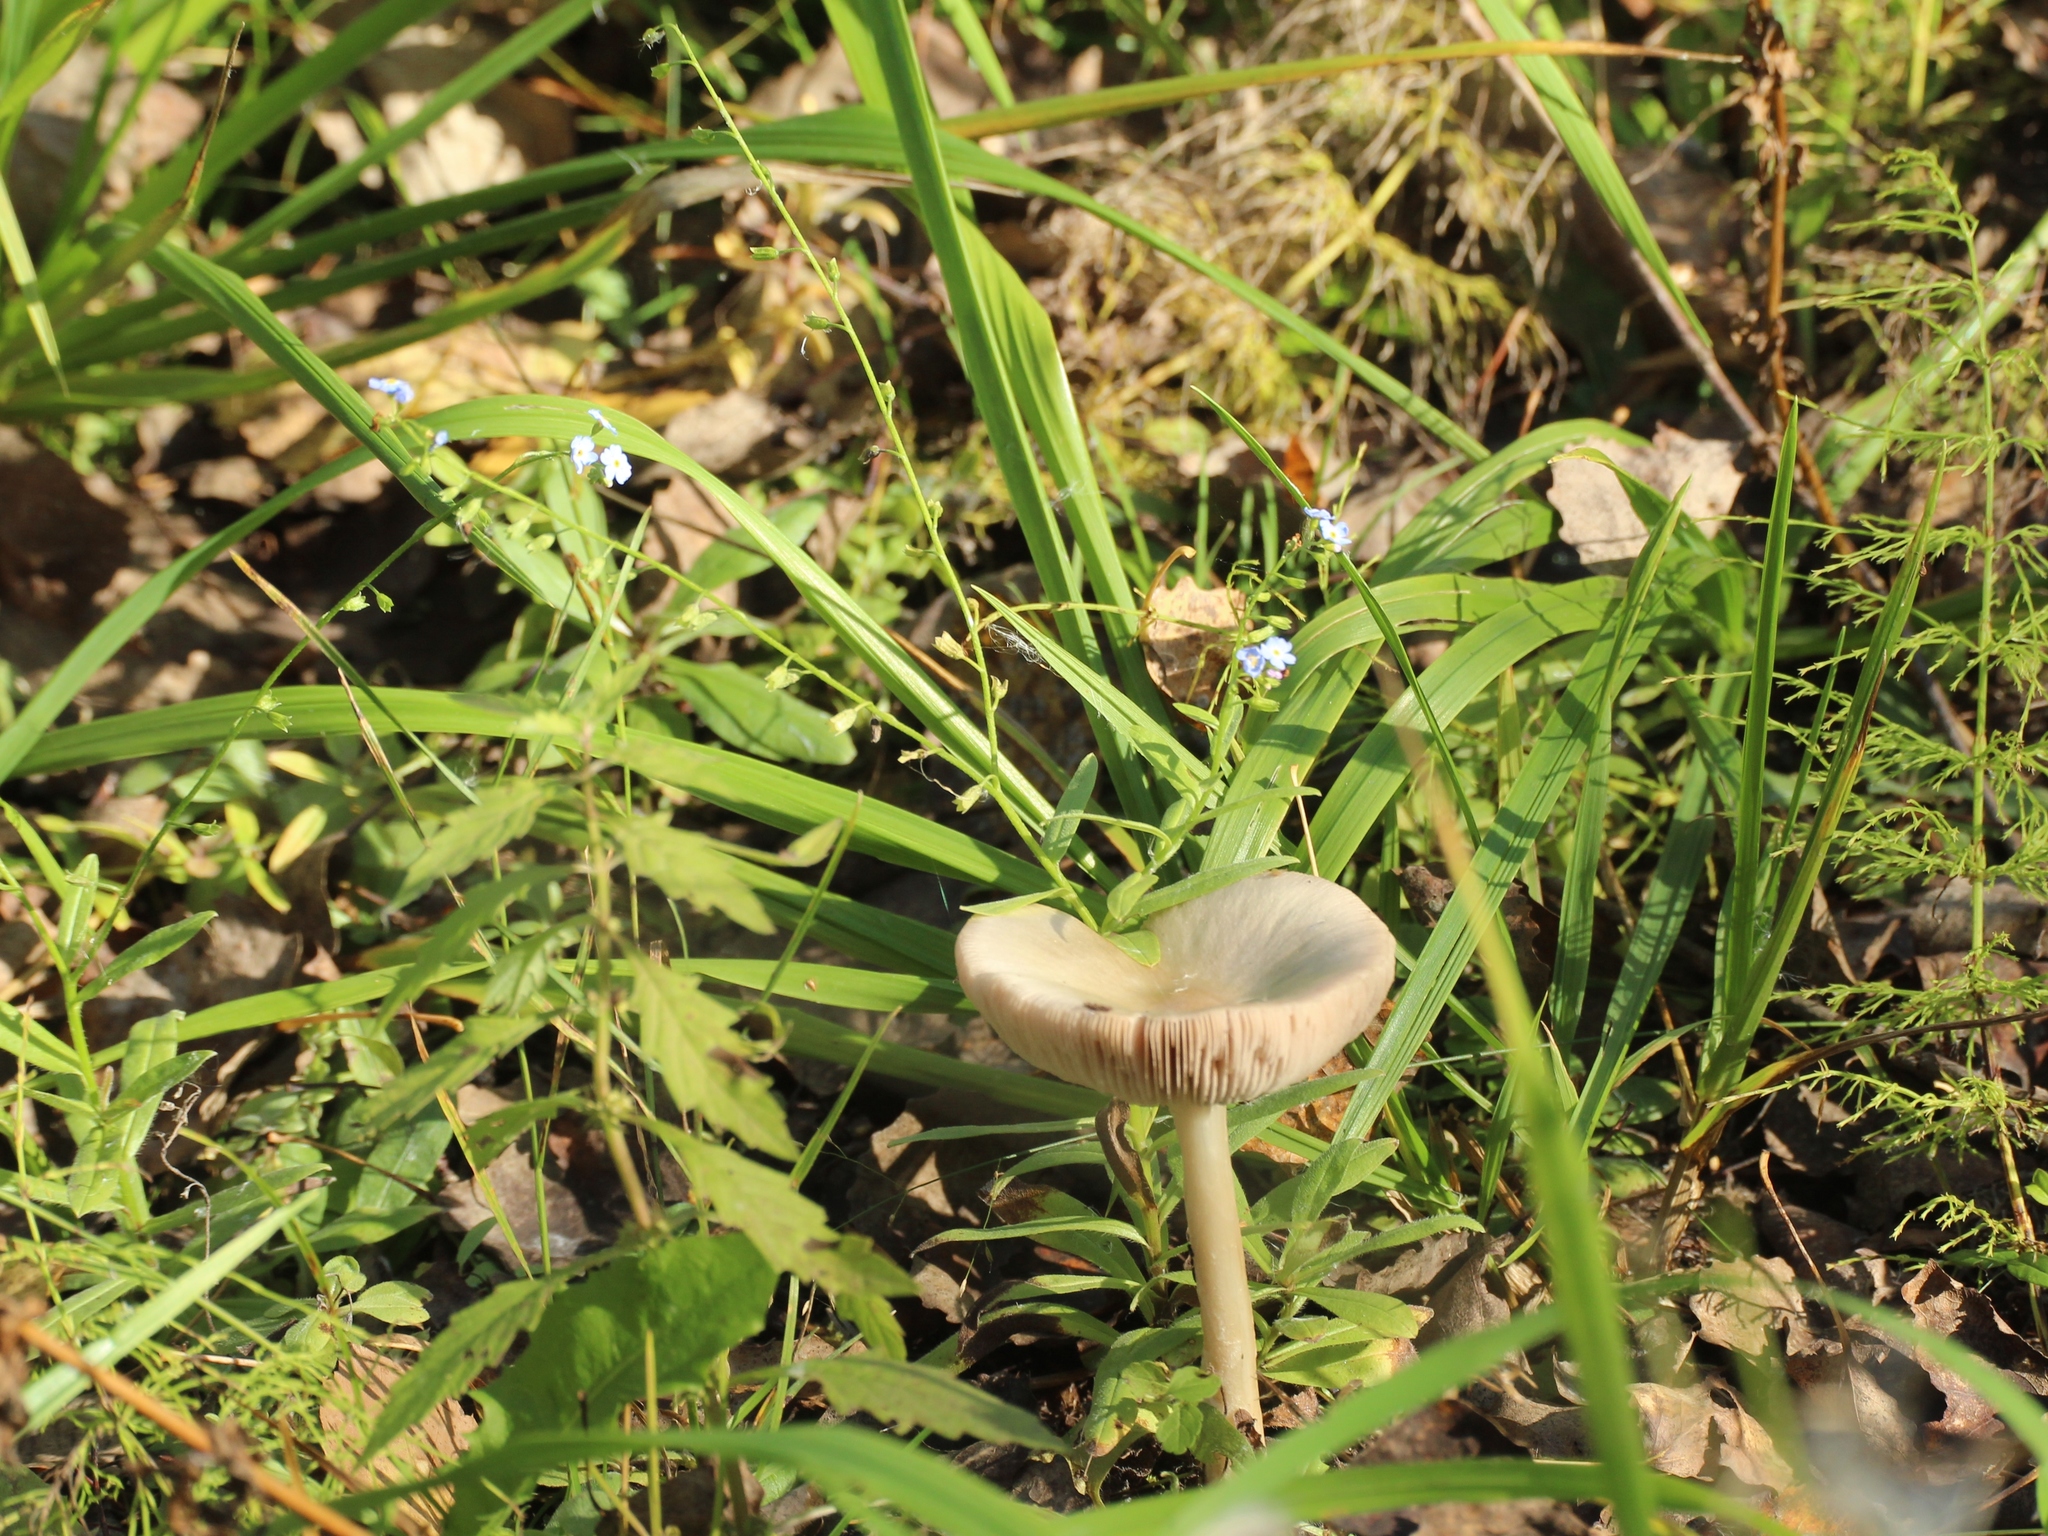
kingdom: Plantae
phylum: Tracheophyta
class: Magnoliopsida
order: Boraginales
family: Boraginaceae
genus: Myosotis
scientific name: Myosotis laxa
